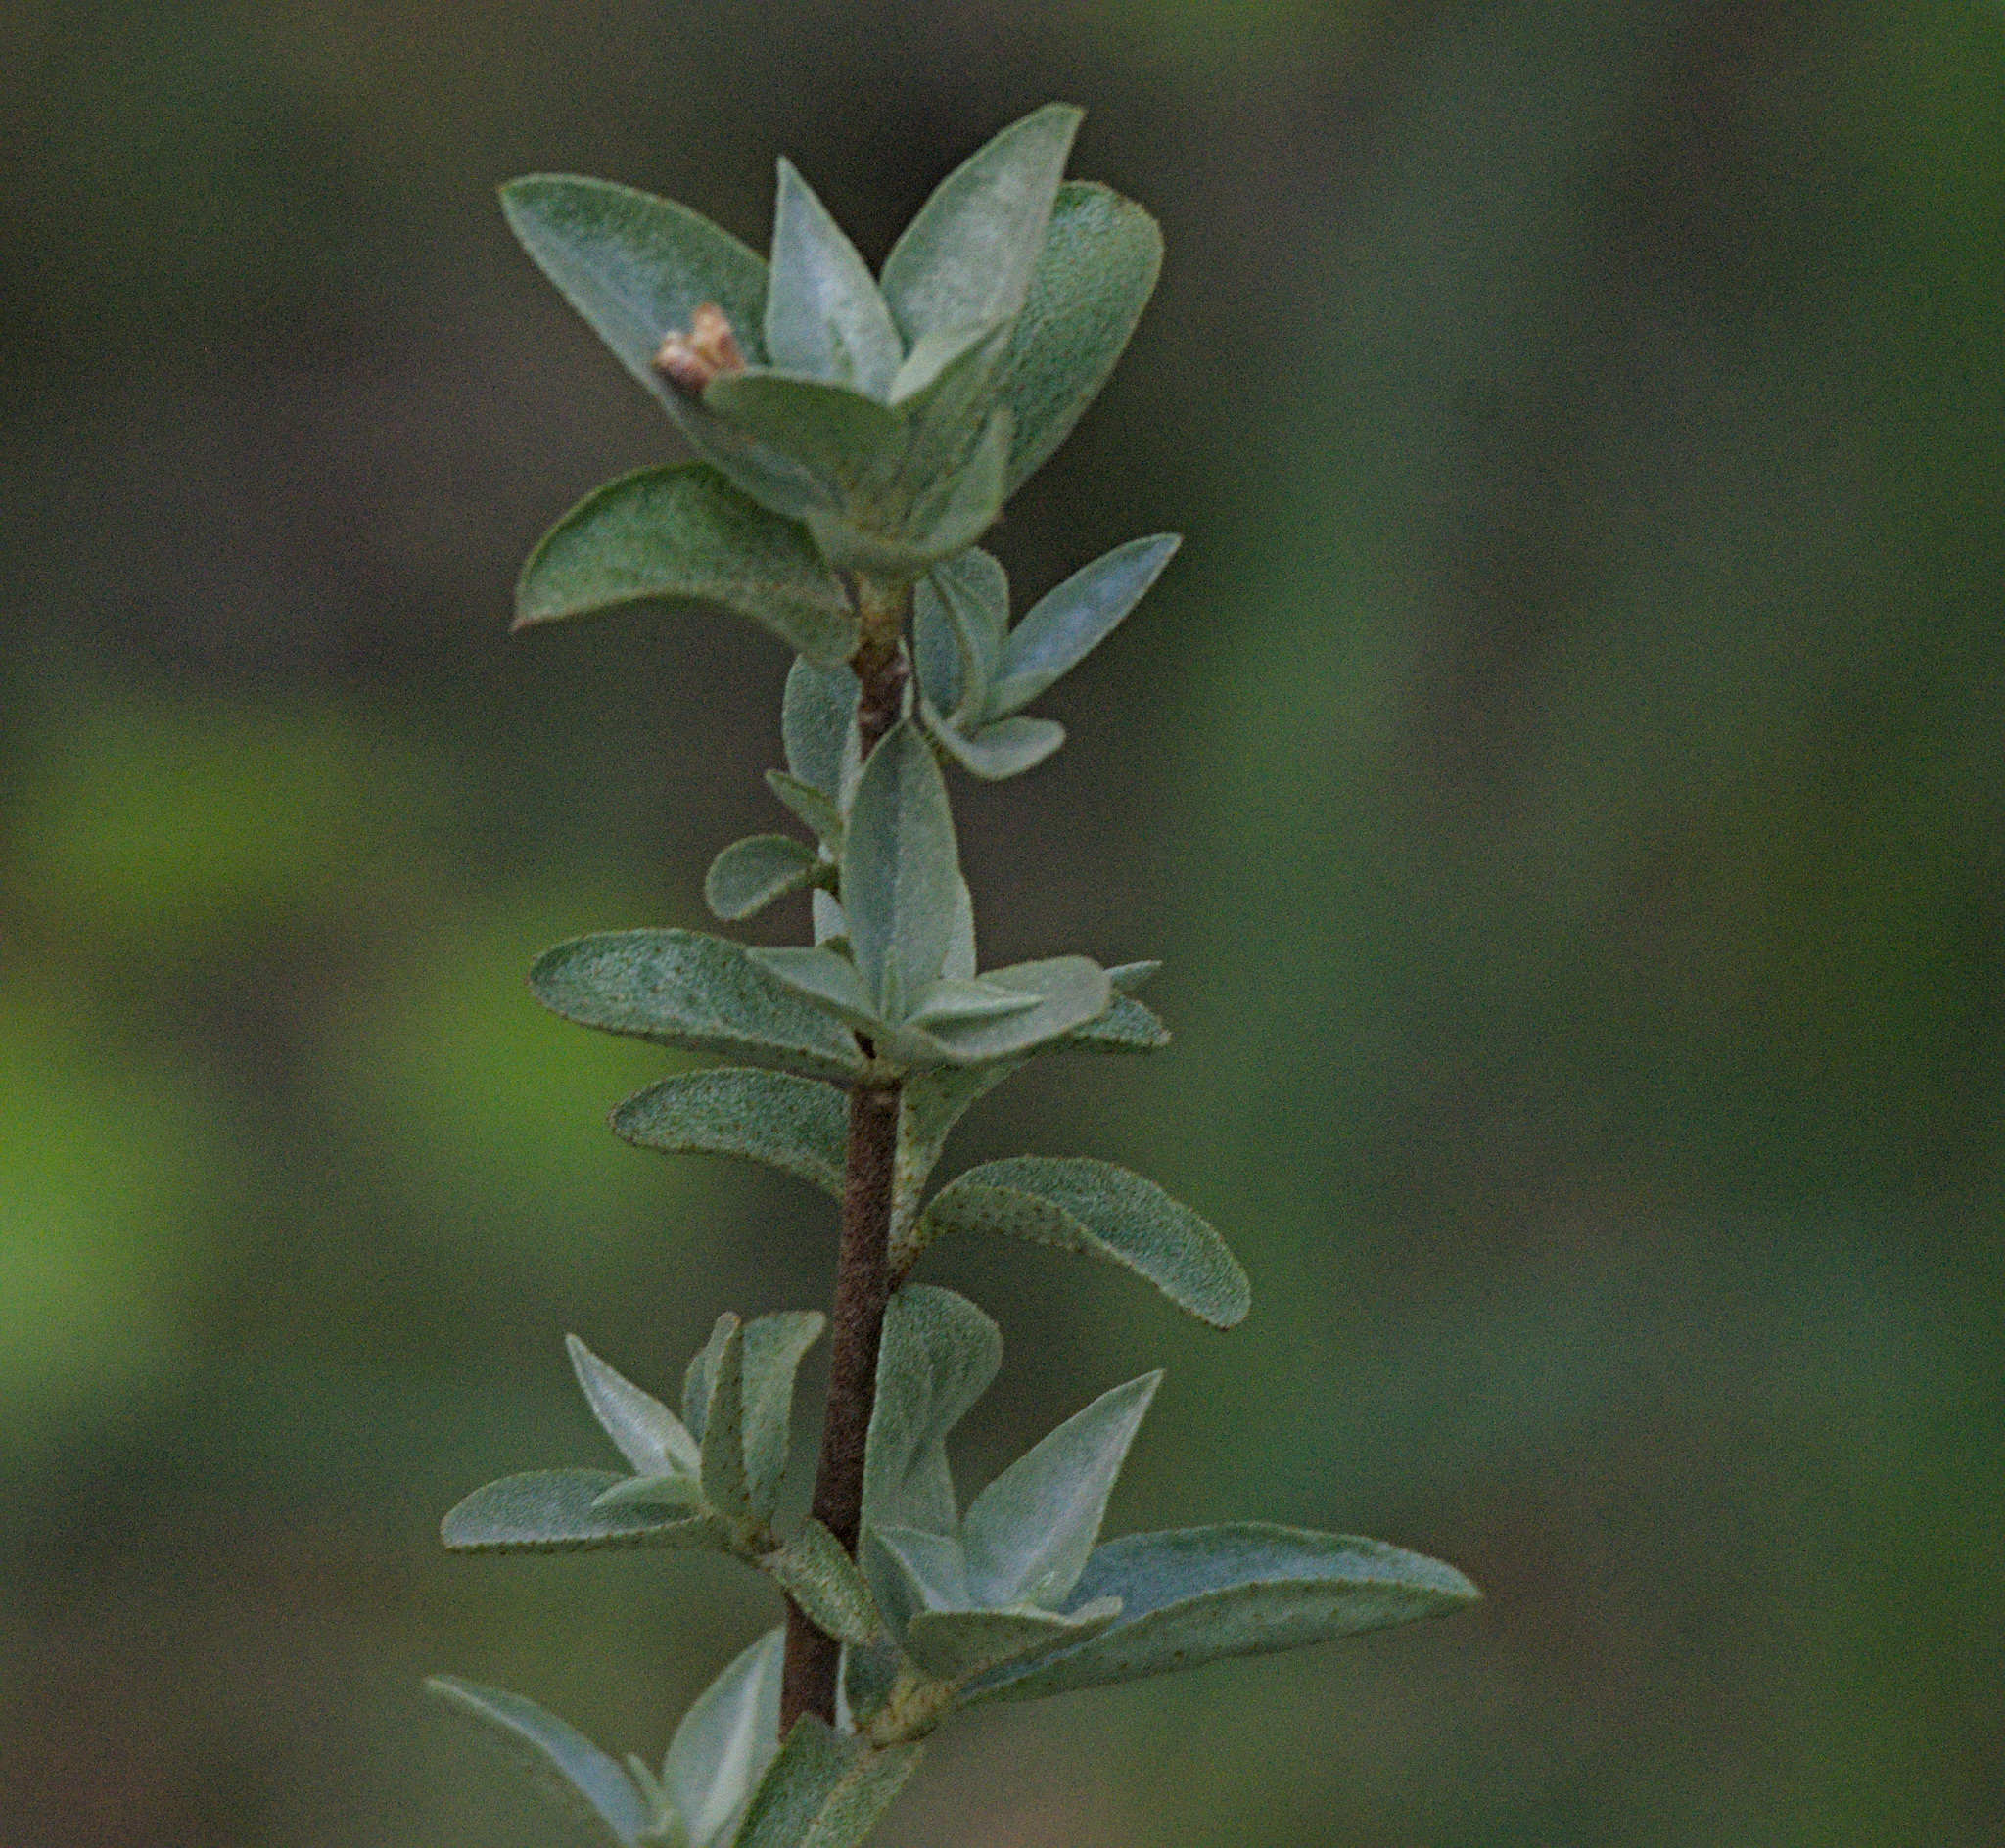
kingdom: Plantae
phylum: Tracheophyta
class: Magnoliopsida
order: Rosales
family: Elaeagnaceae
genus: Elaeagnus
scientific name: Elaeagnus commutata
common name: Silverberry
